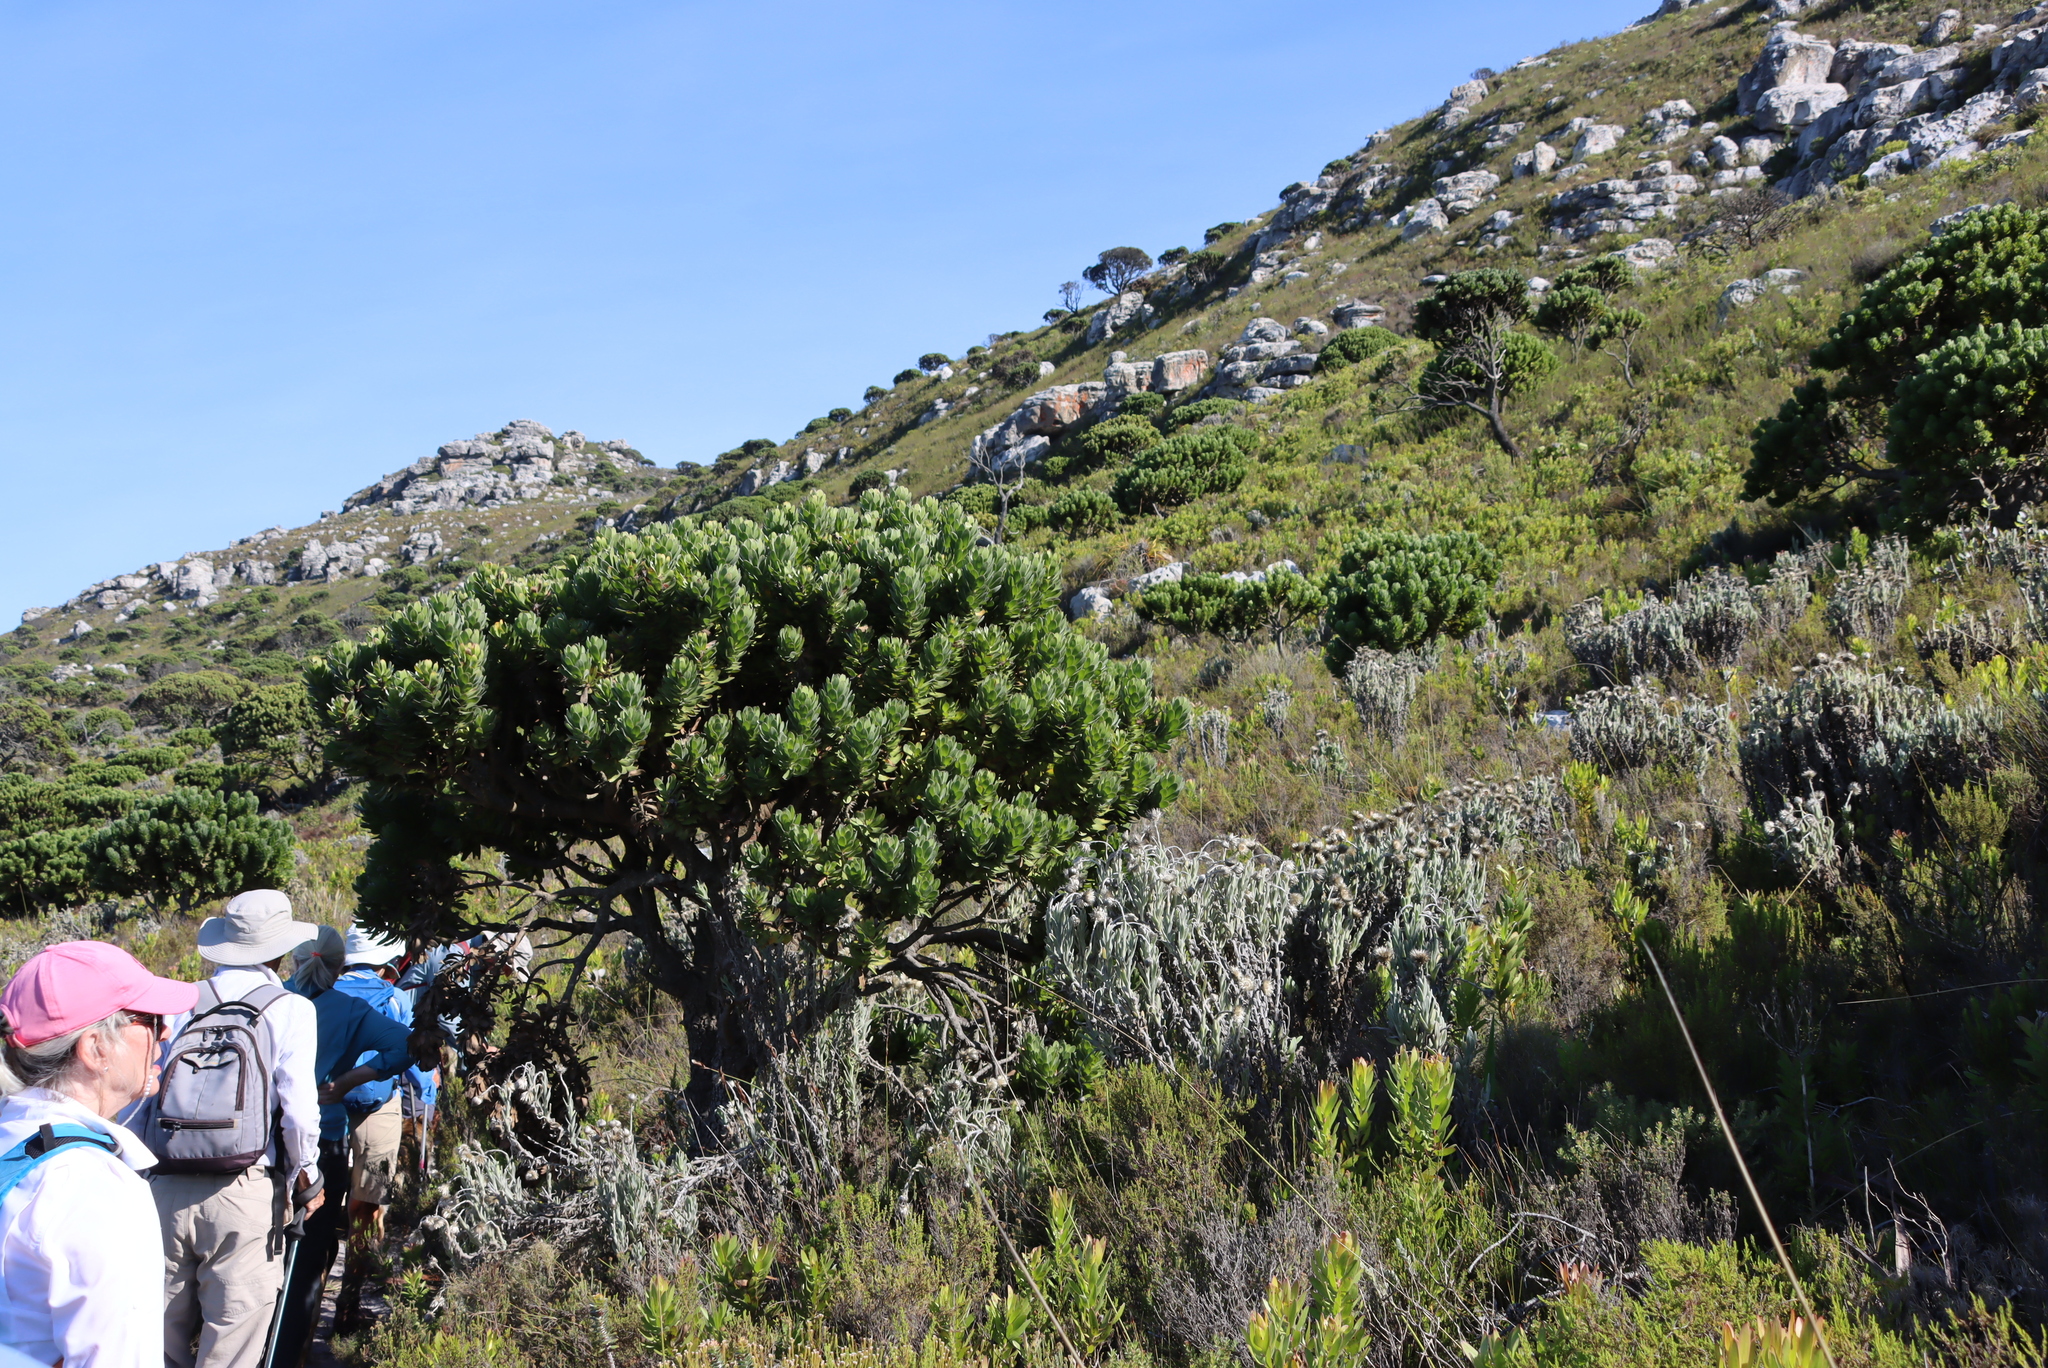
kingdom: Plantae
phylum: Tracheophyta
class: Magnoliopsida
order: Proteales
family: Proteaceae
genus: Mimetes
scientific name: Mimetes fimbriifolius
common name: Fringed bottlebrush
